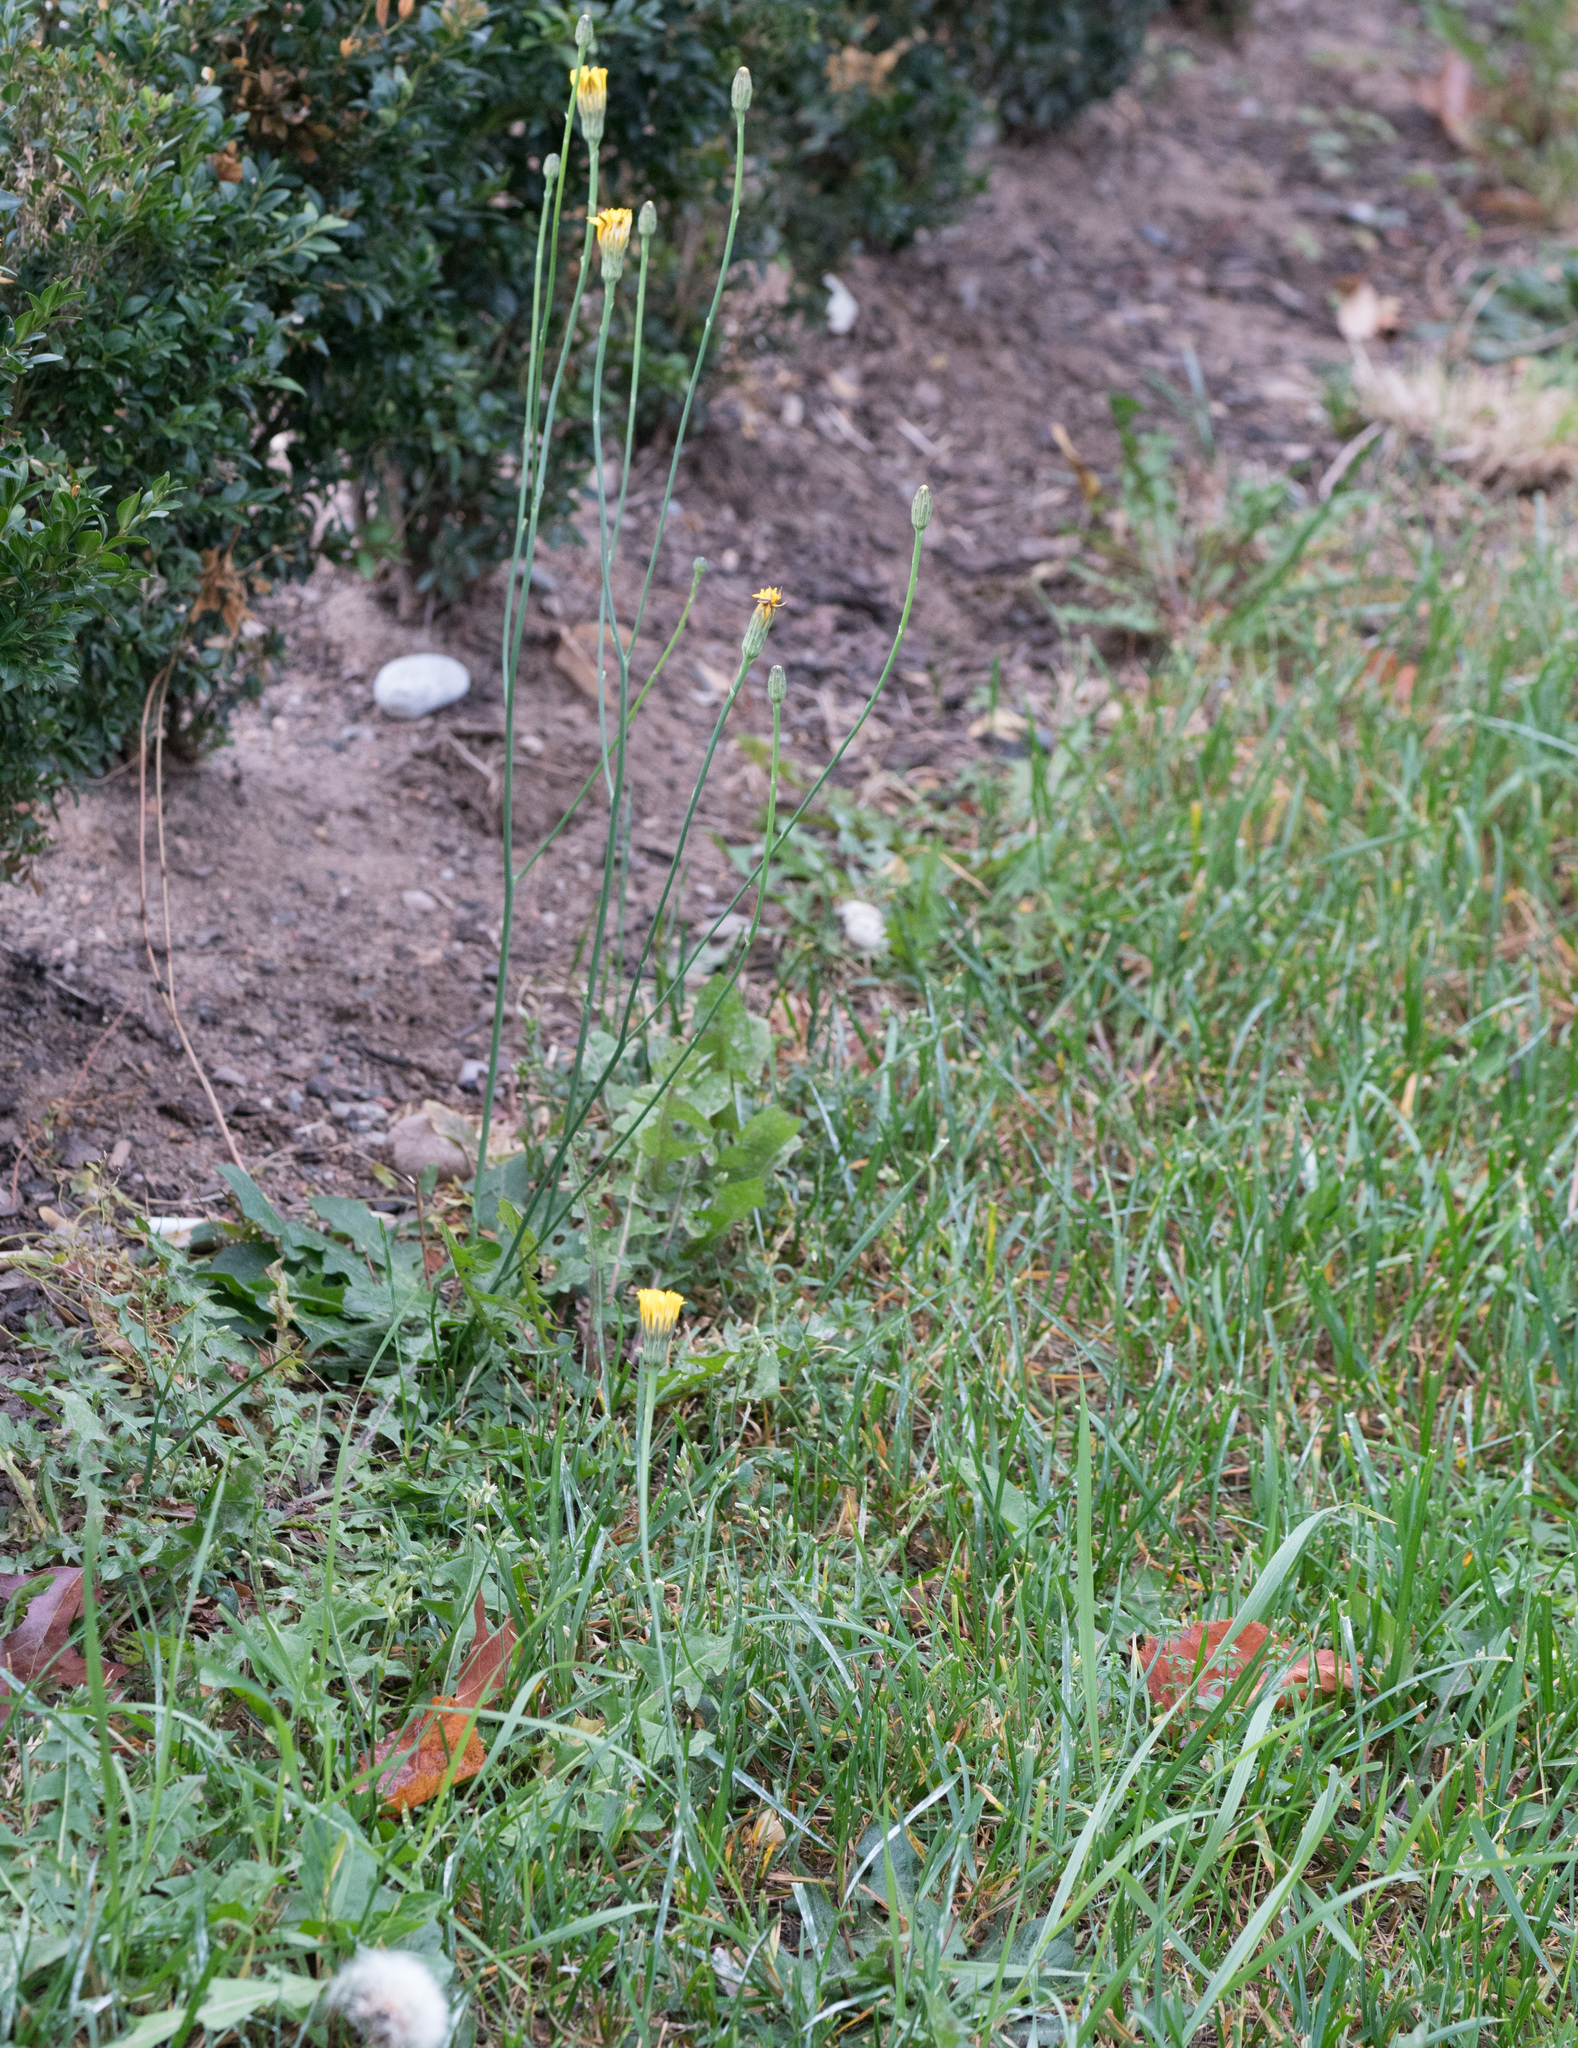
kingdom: Plantae
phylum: Tracheophyta
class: Magnoliopsida
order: Asterales
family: Asteraceae
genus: Hypochaeris
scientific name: Hypochaeris radicata
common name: Flatweed
